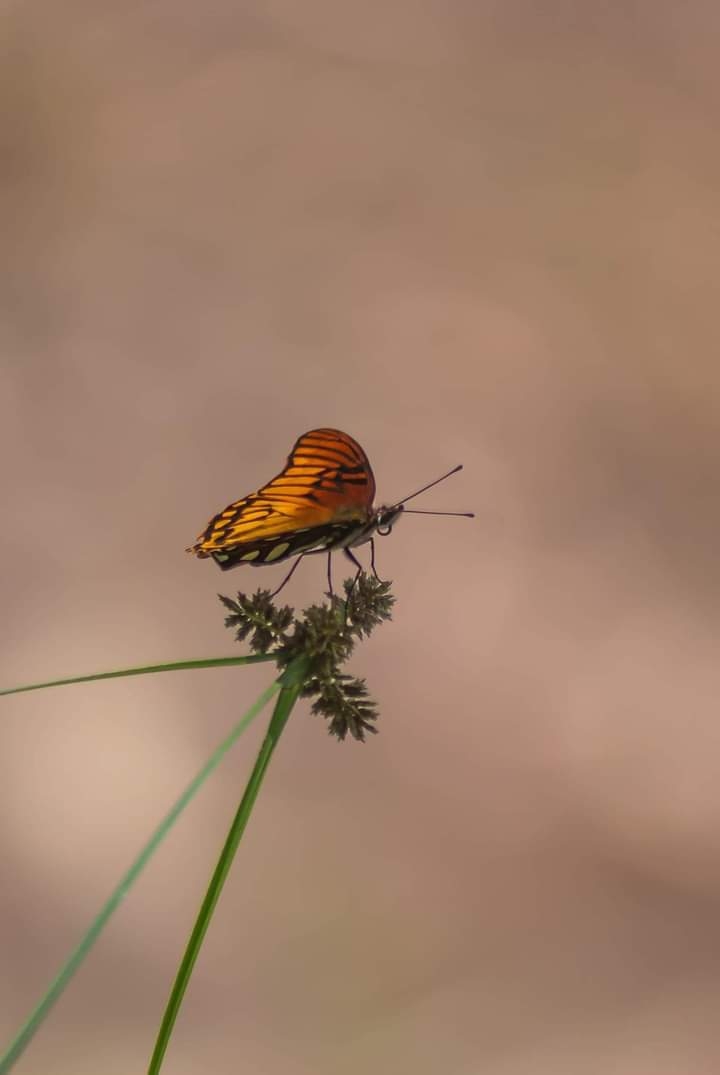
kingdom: Animalia
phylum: Arthropoda
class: Insecta
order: Lepidoptera
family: Nymphalidae
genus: Dione
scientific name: Dione moneta
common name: Mexican silverspot
